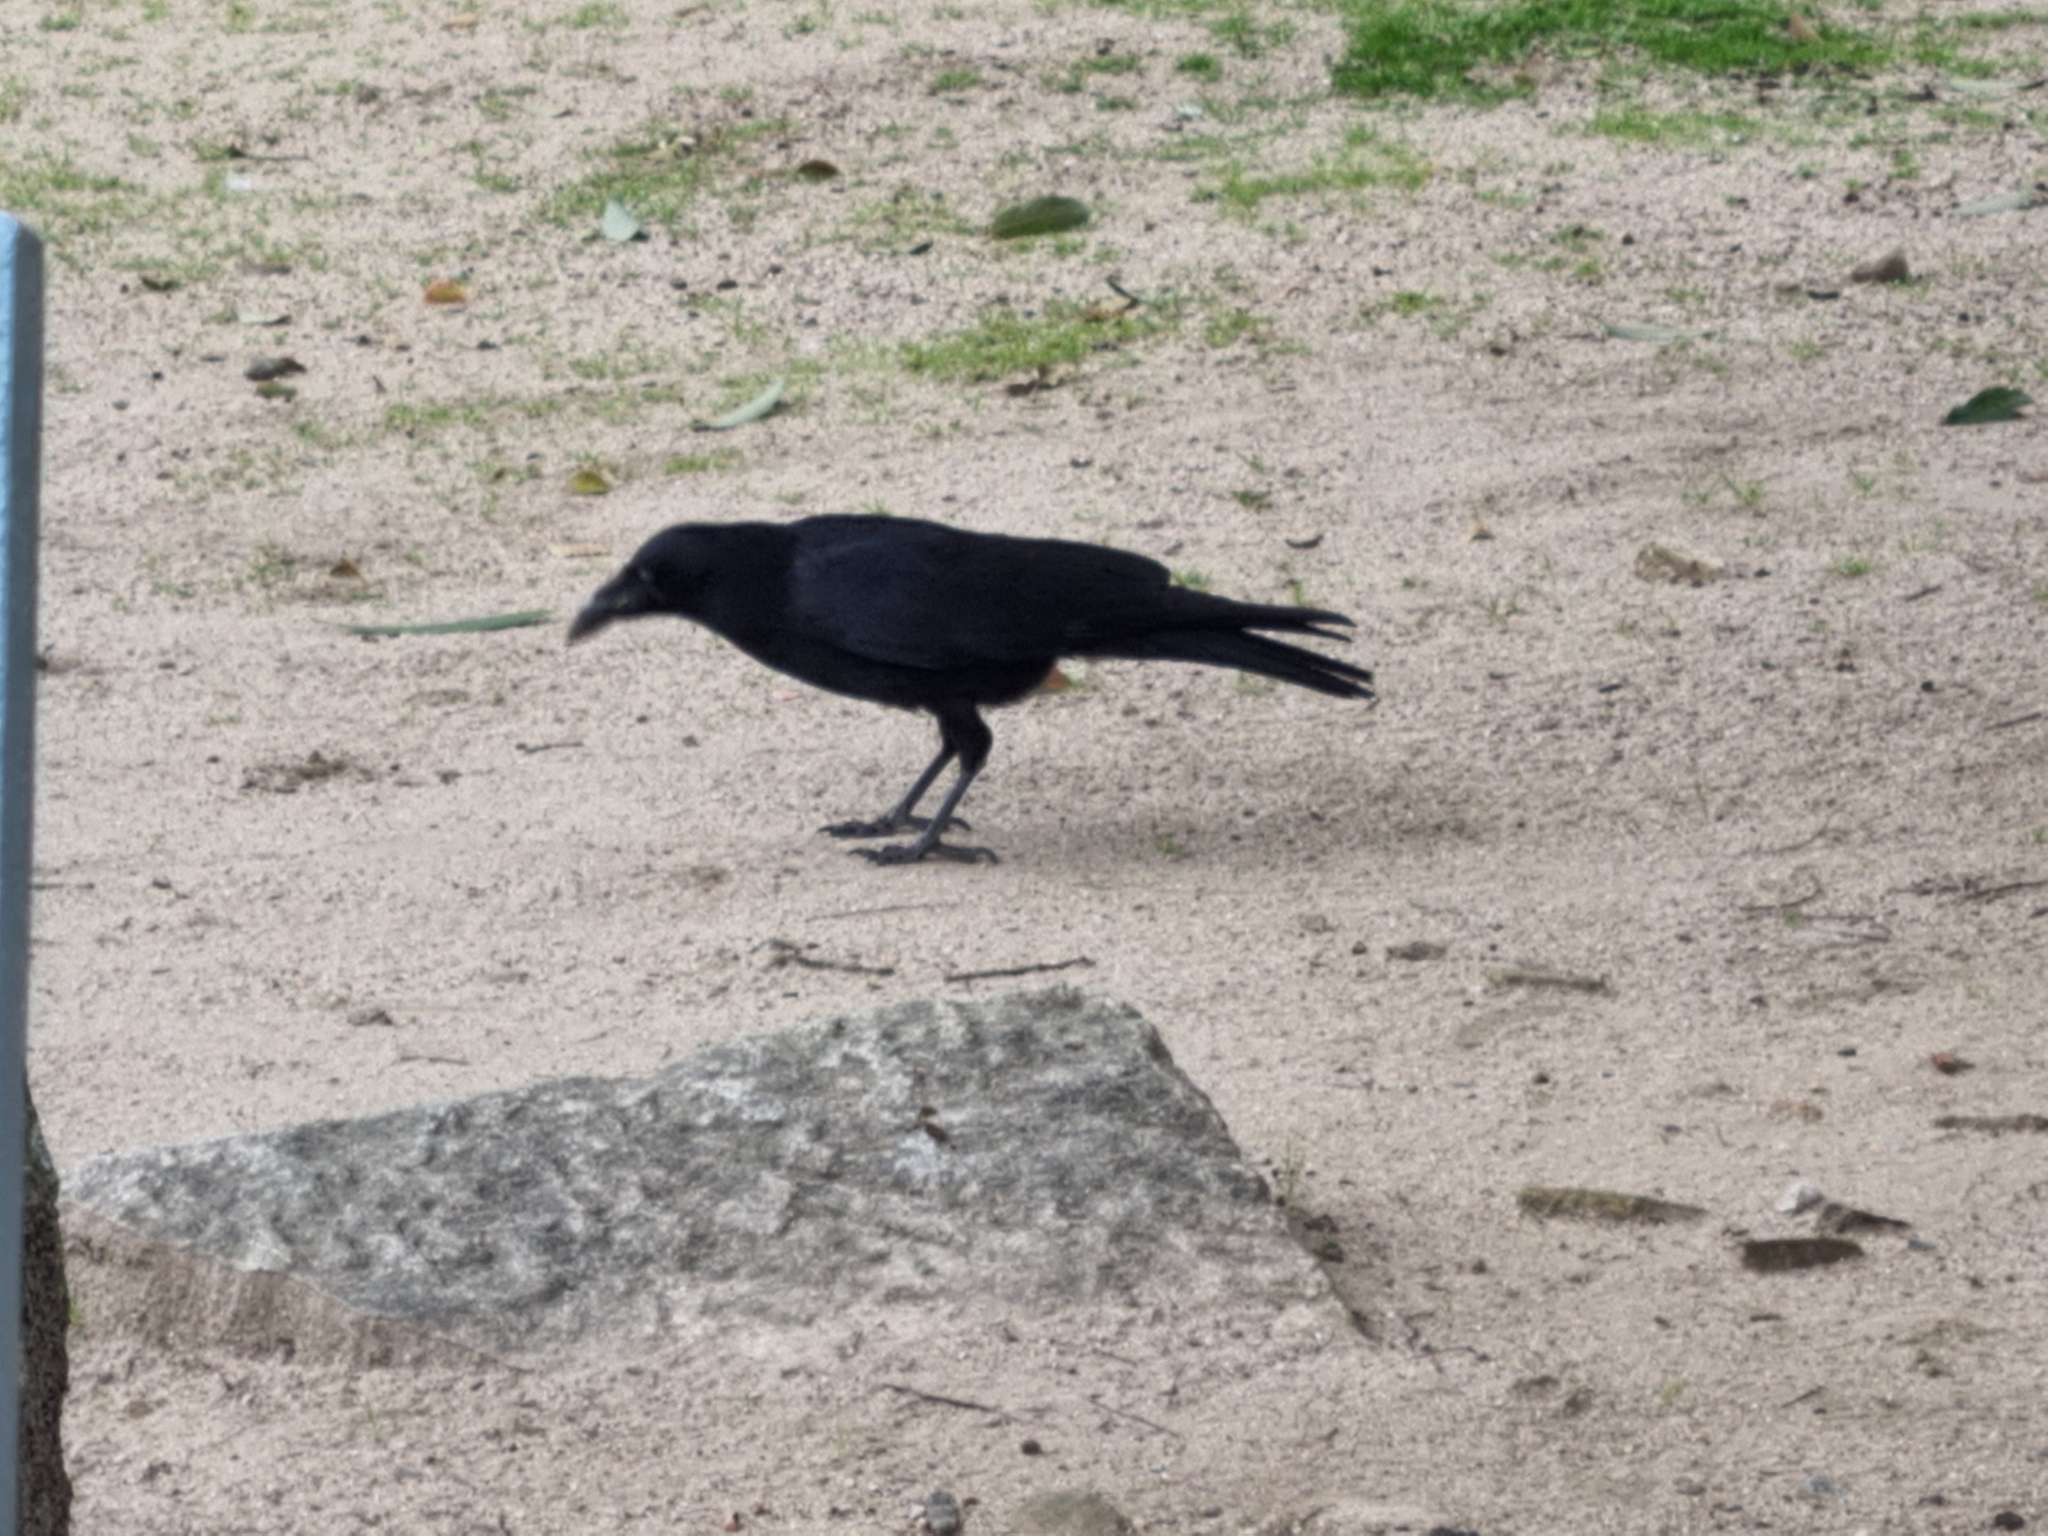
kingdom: Animalia
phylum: Chordata
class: Aves
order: Passeriformes
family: Corvidae
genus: Corvus
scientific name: Corvus corone
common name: Carrion crow
